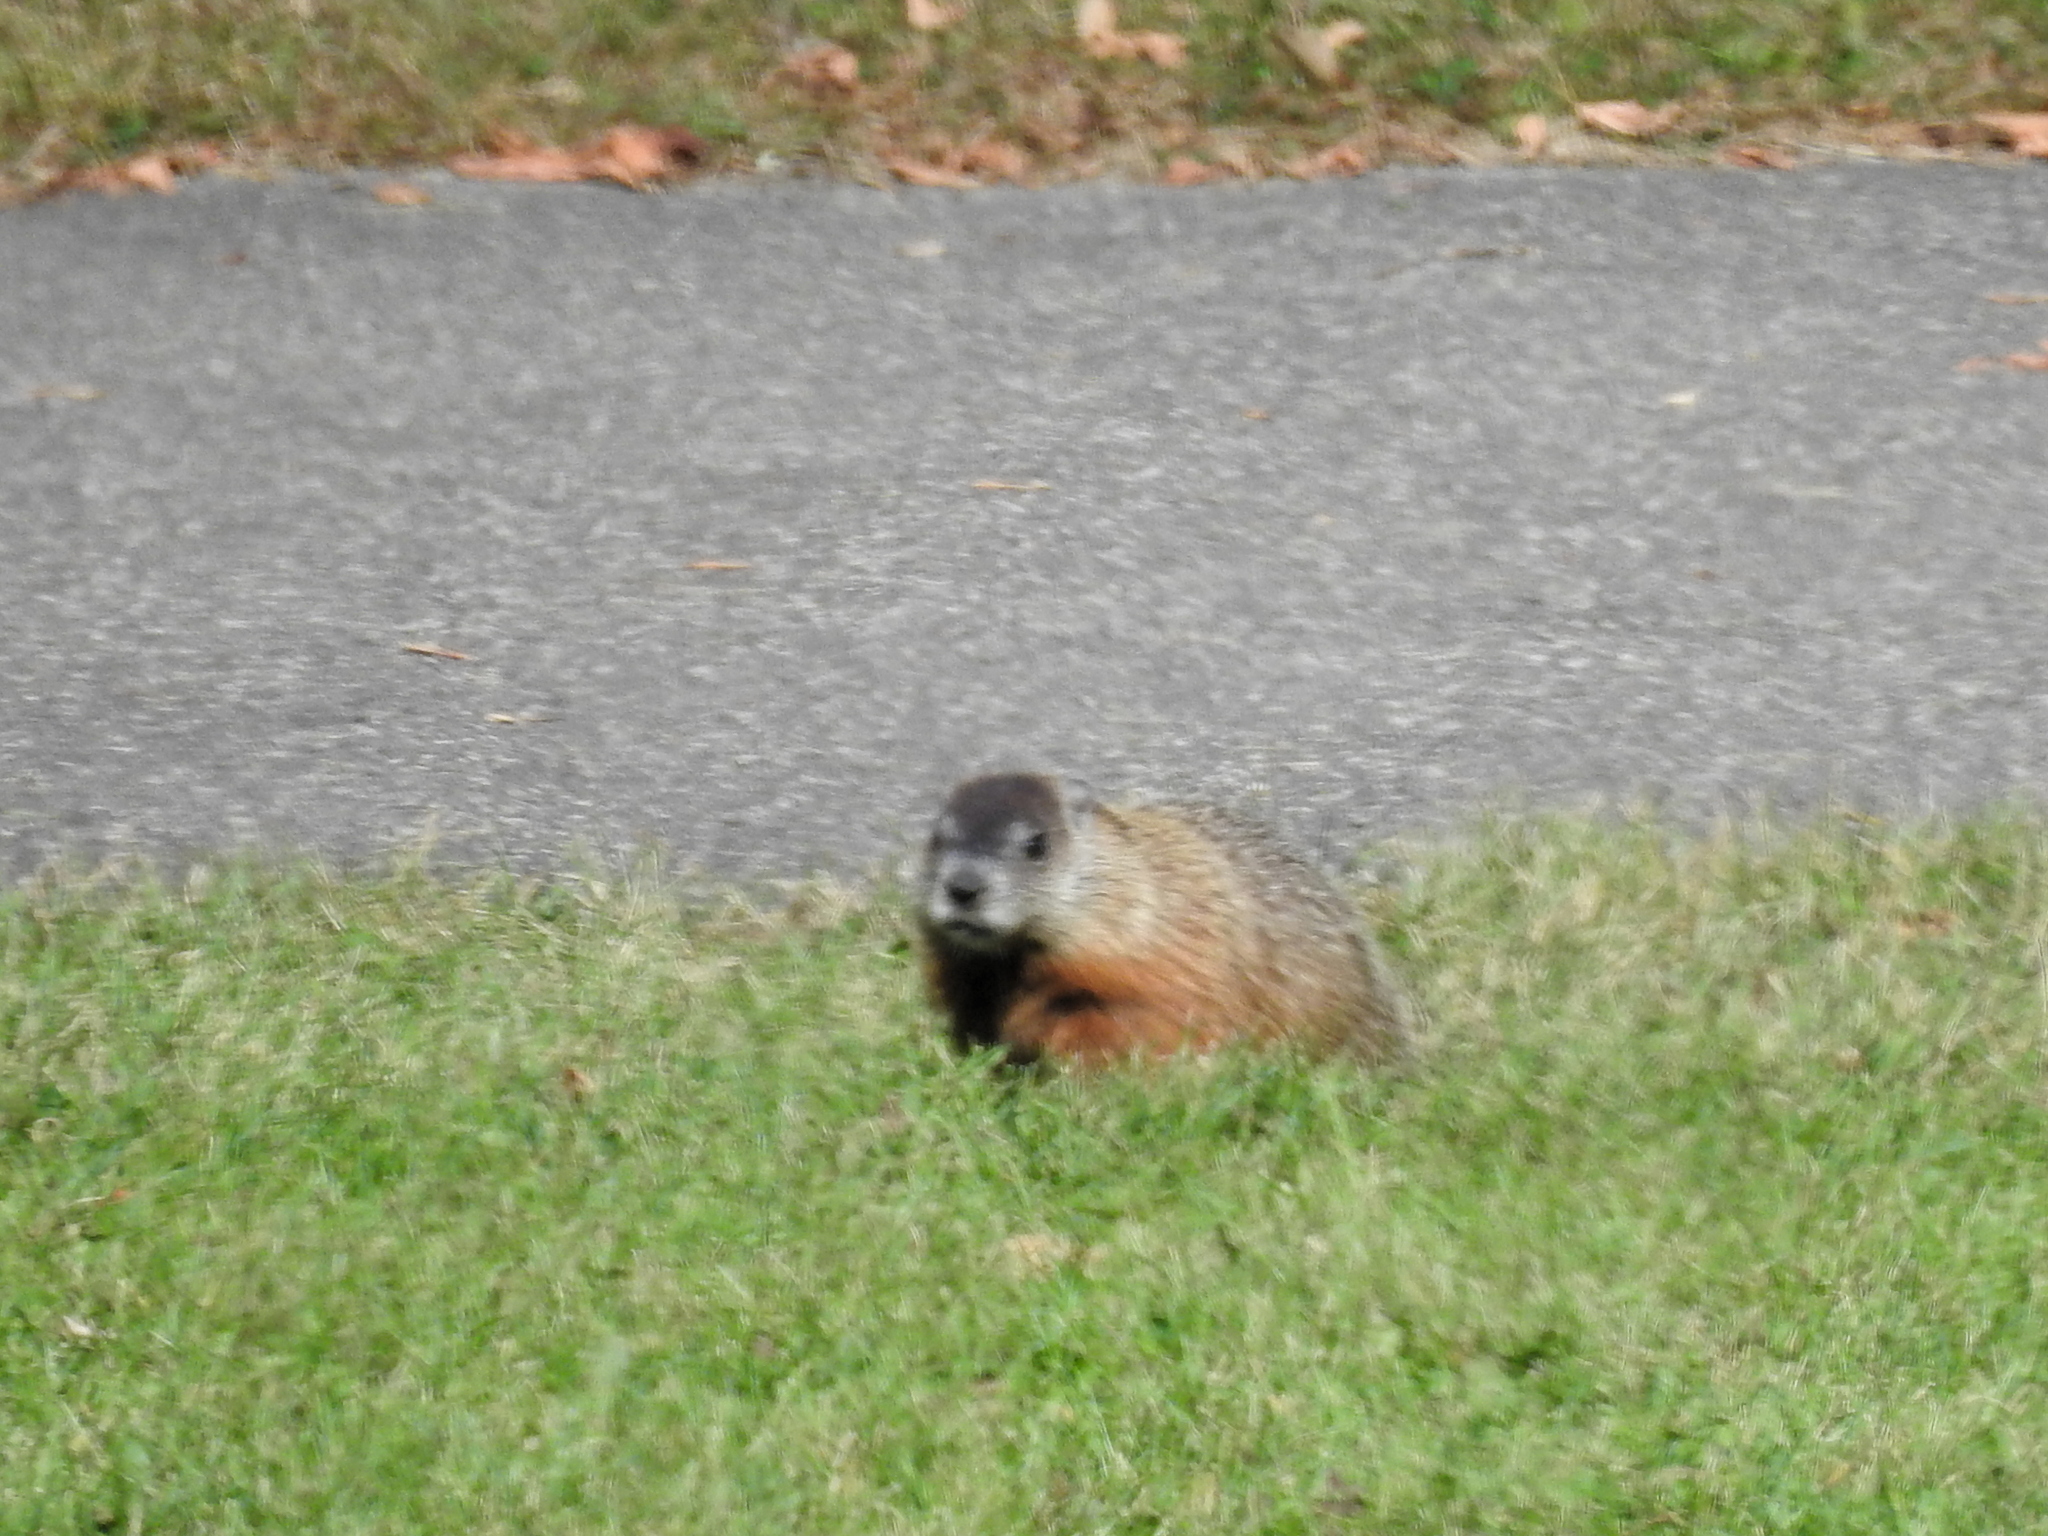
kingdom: Animalia
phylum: Chordata
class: Mammalia
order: Rodentia
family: Sciuridae
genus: Marmota
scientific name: Marmota monax
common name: Groundhog
